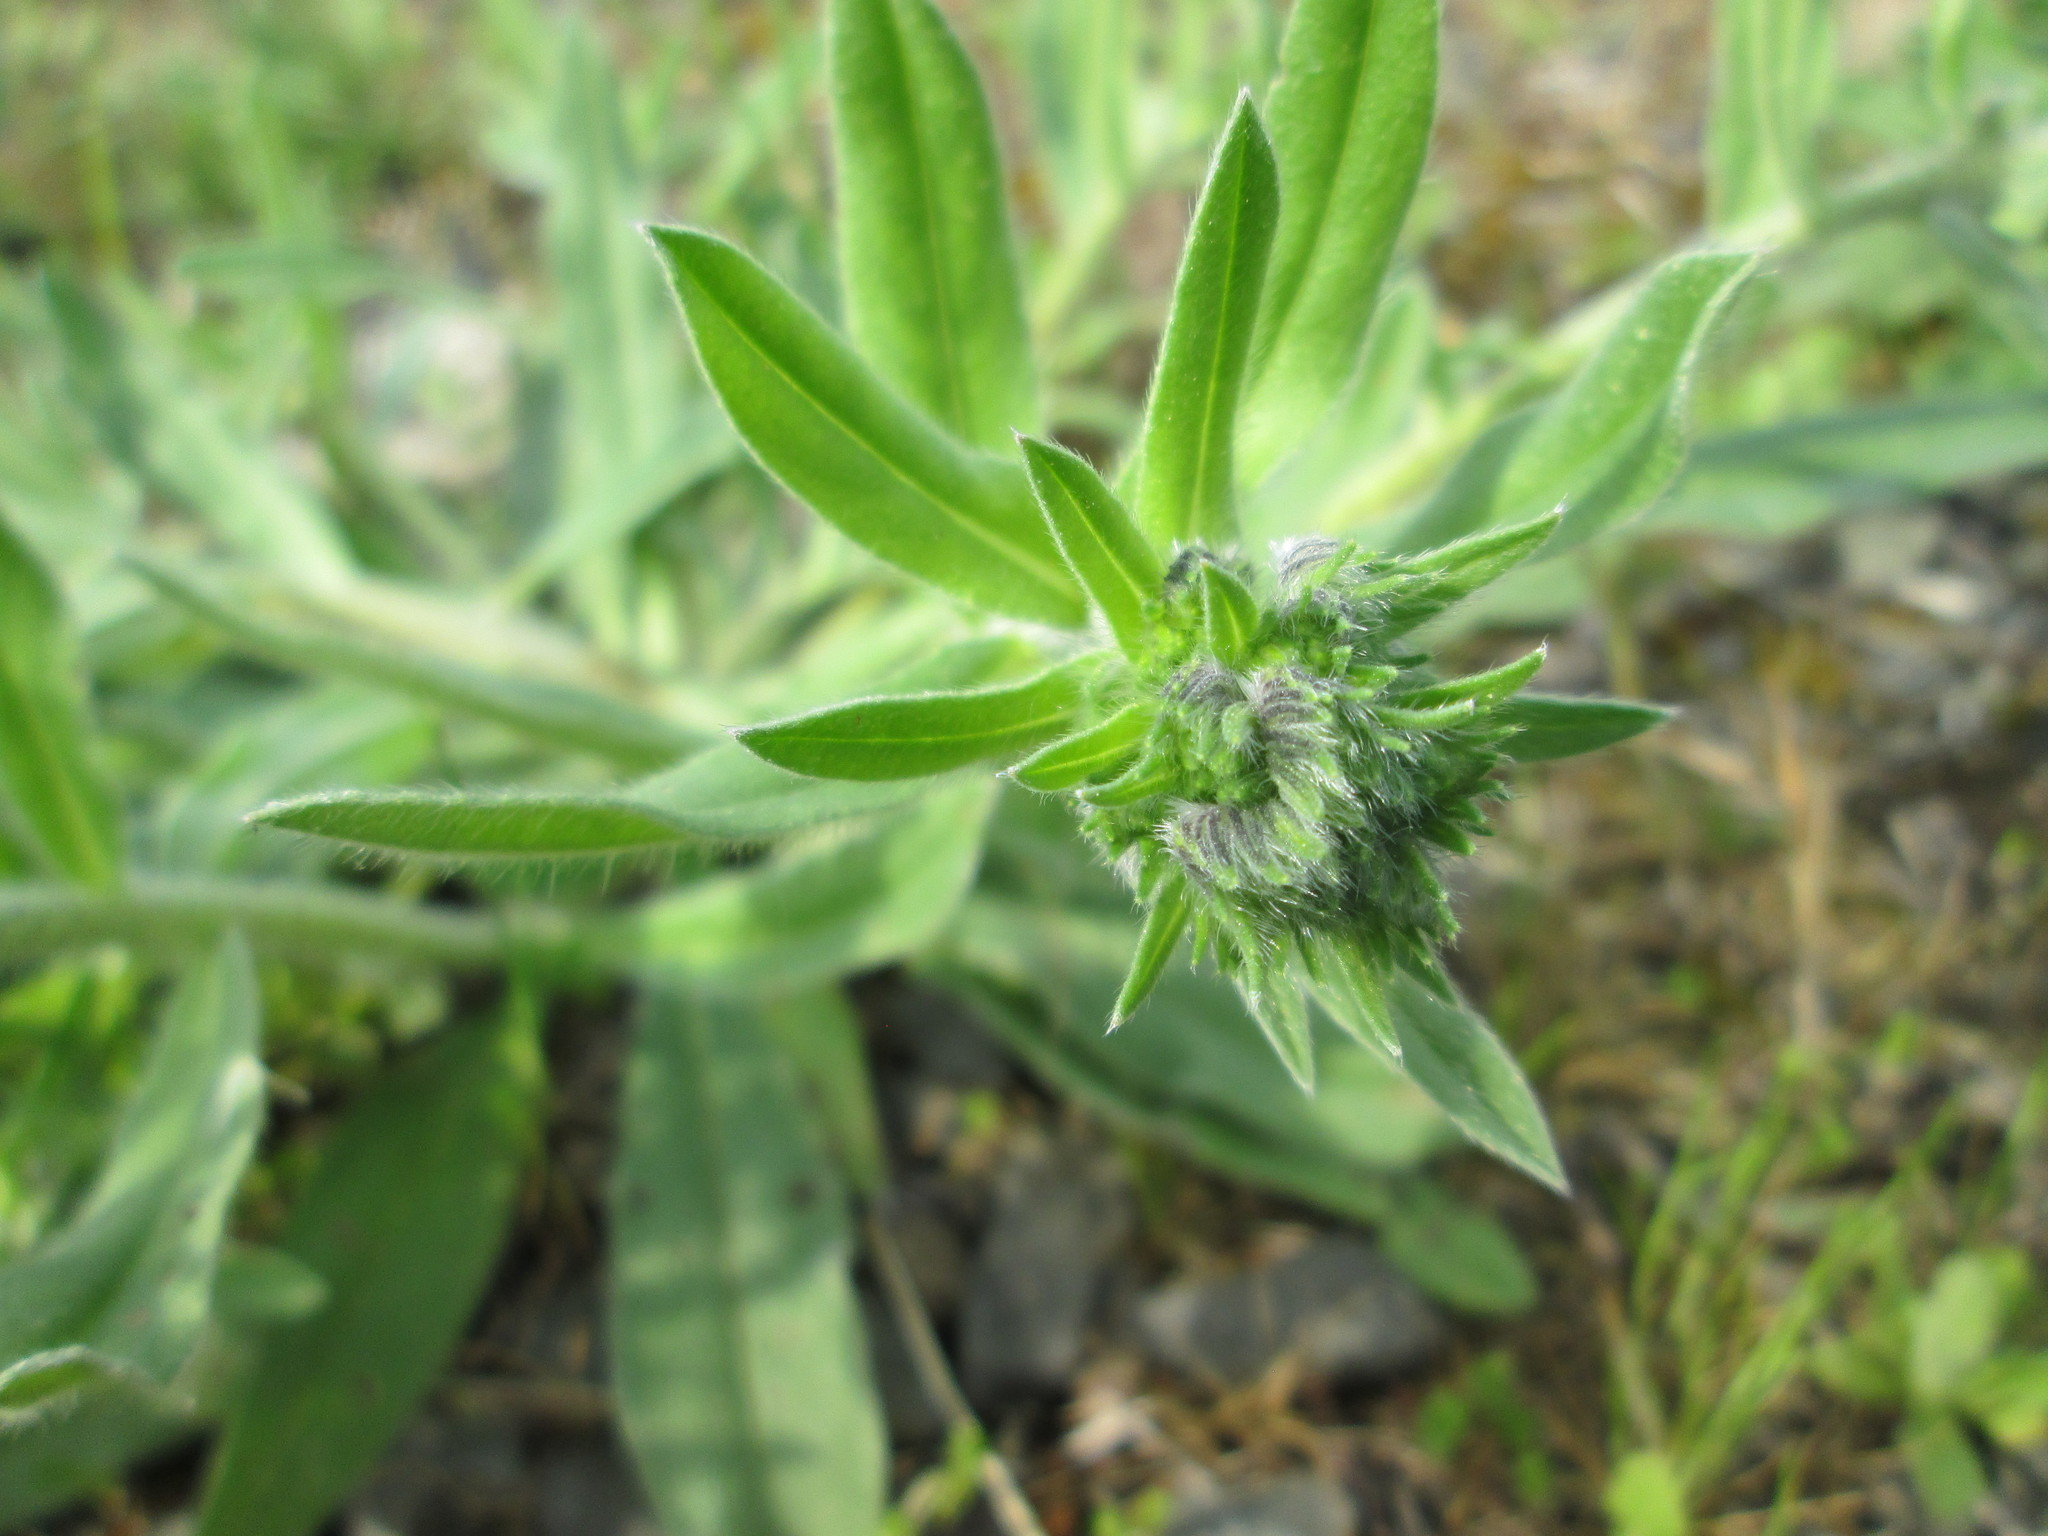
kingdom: Plantae
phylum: Tracheophyta
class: Magnoliopsida
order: Boraginales
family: Boraginaceae
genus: Echium
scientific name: Echium vulgare
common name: Common viper's bugloss
